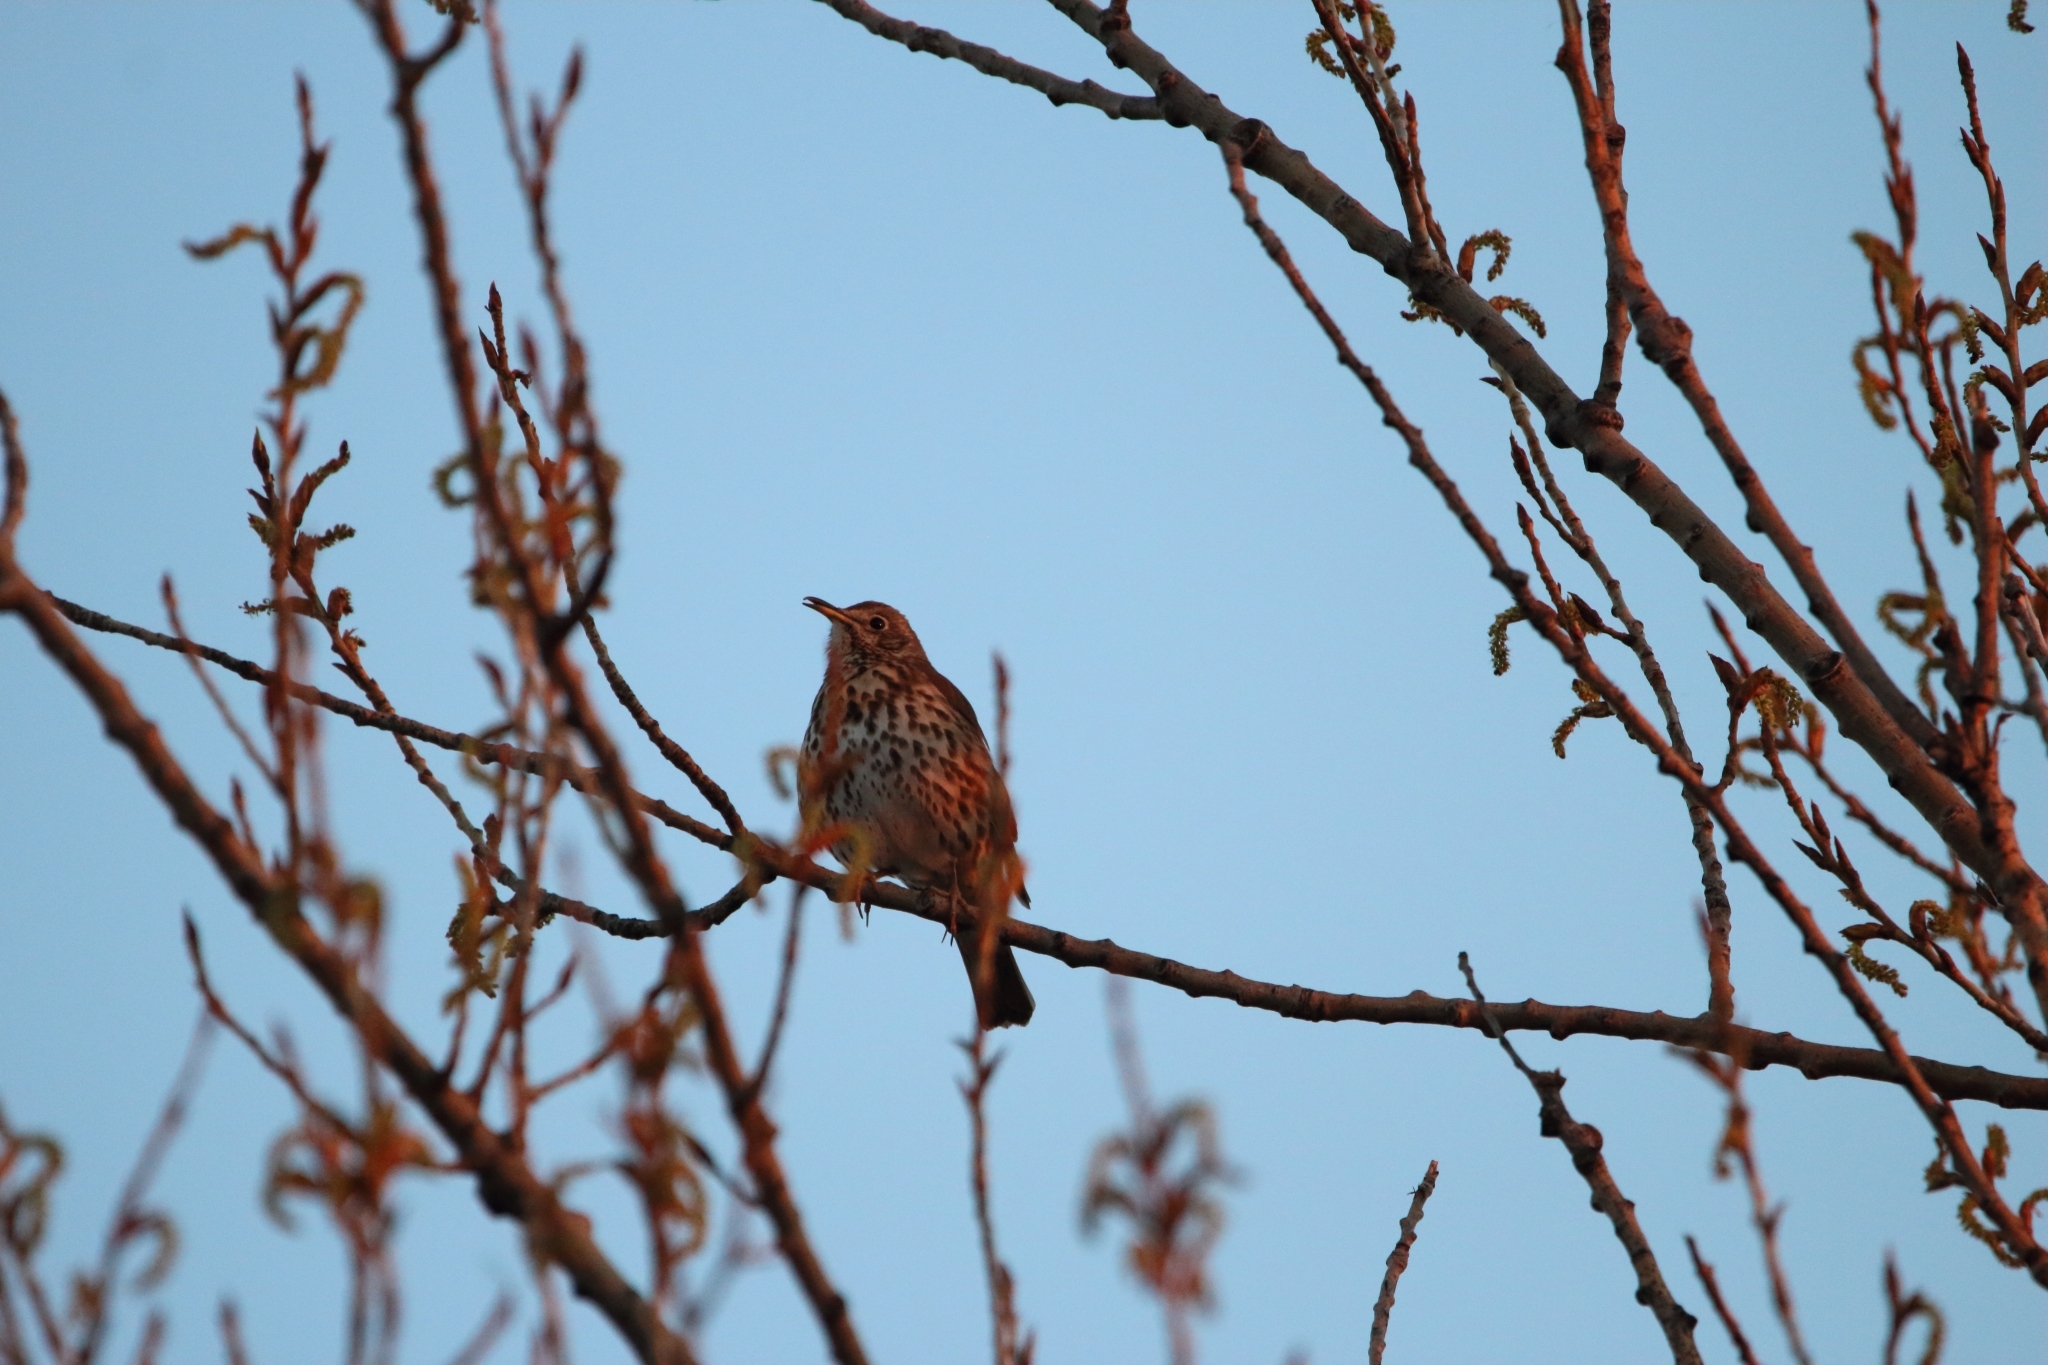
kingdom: Animalia
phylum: Chordata
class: Aves
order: Passeriformes
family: Turdidae
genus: Turdus
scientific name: Turdus philomelos
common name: Song thrush
